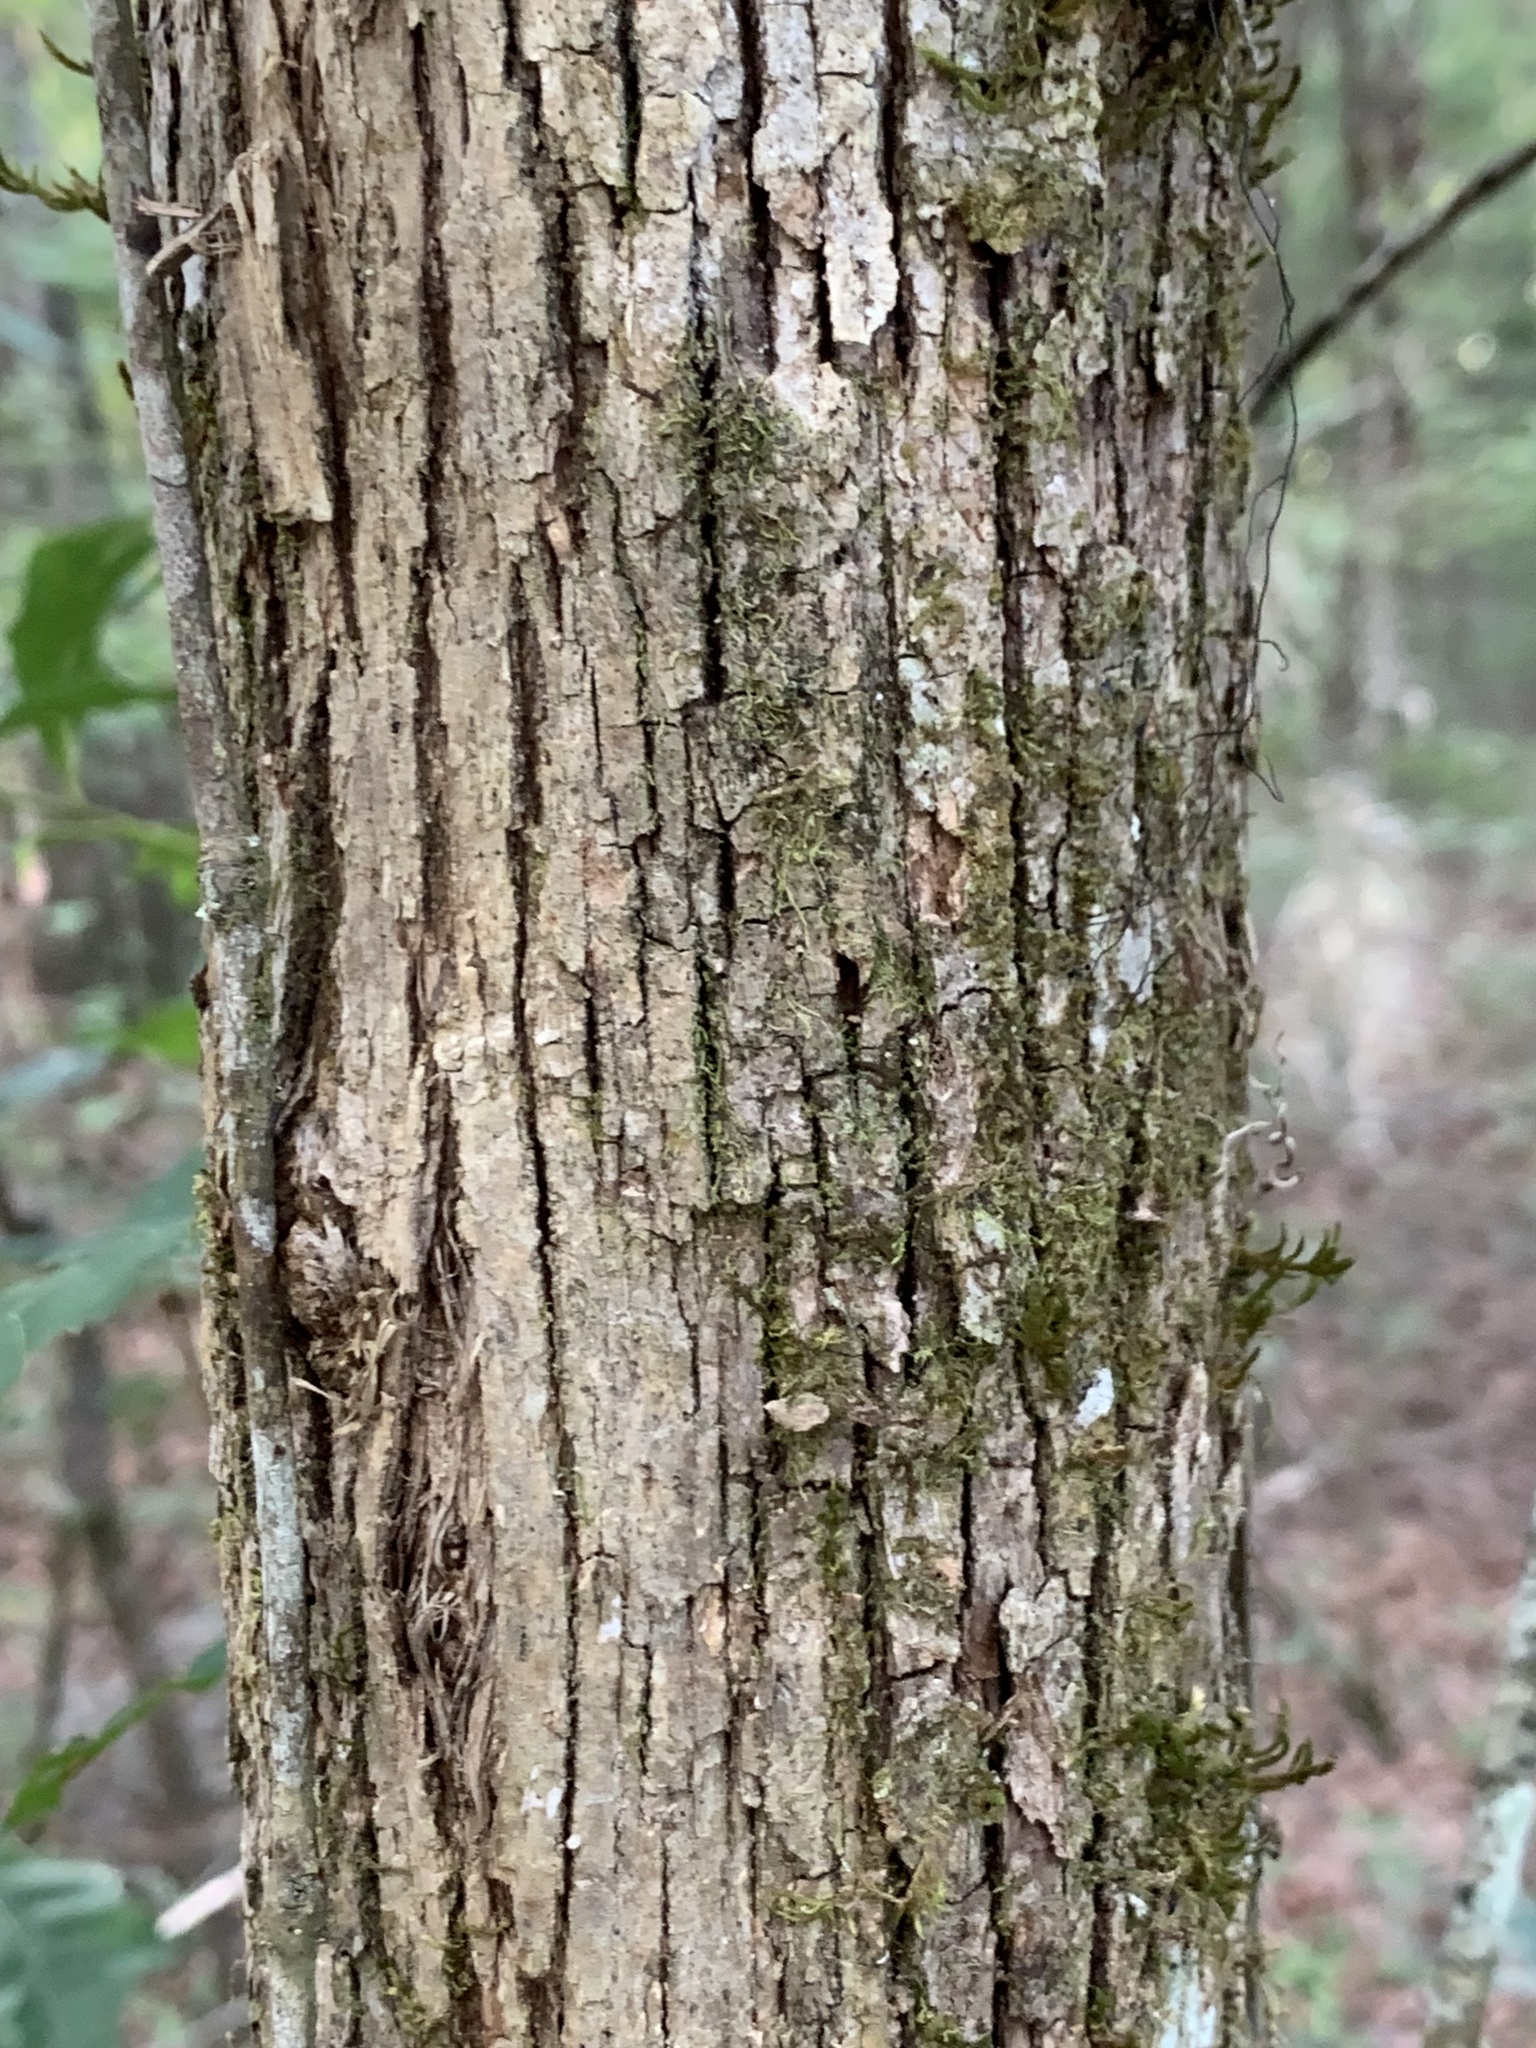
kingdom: Plantae
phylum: Tracheophyta
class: Magnoliopsida
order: Fagales
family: Fagaceae
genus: Quercus
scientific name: Quercus austrina
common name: Bastard white oak
